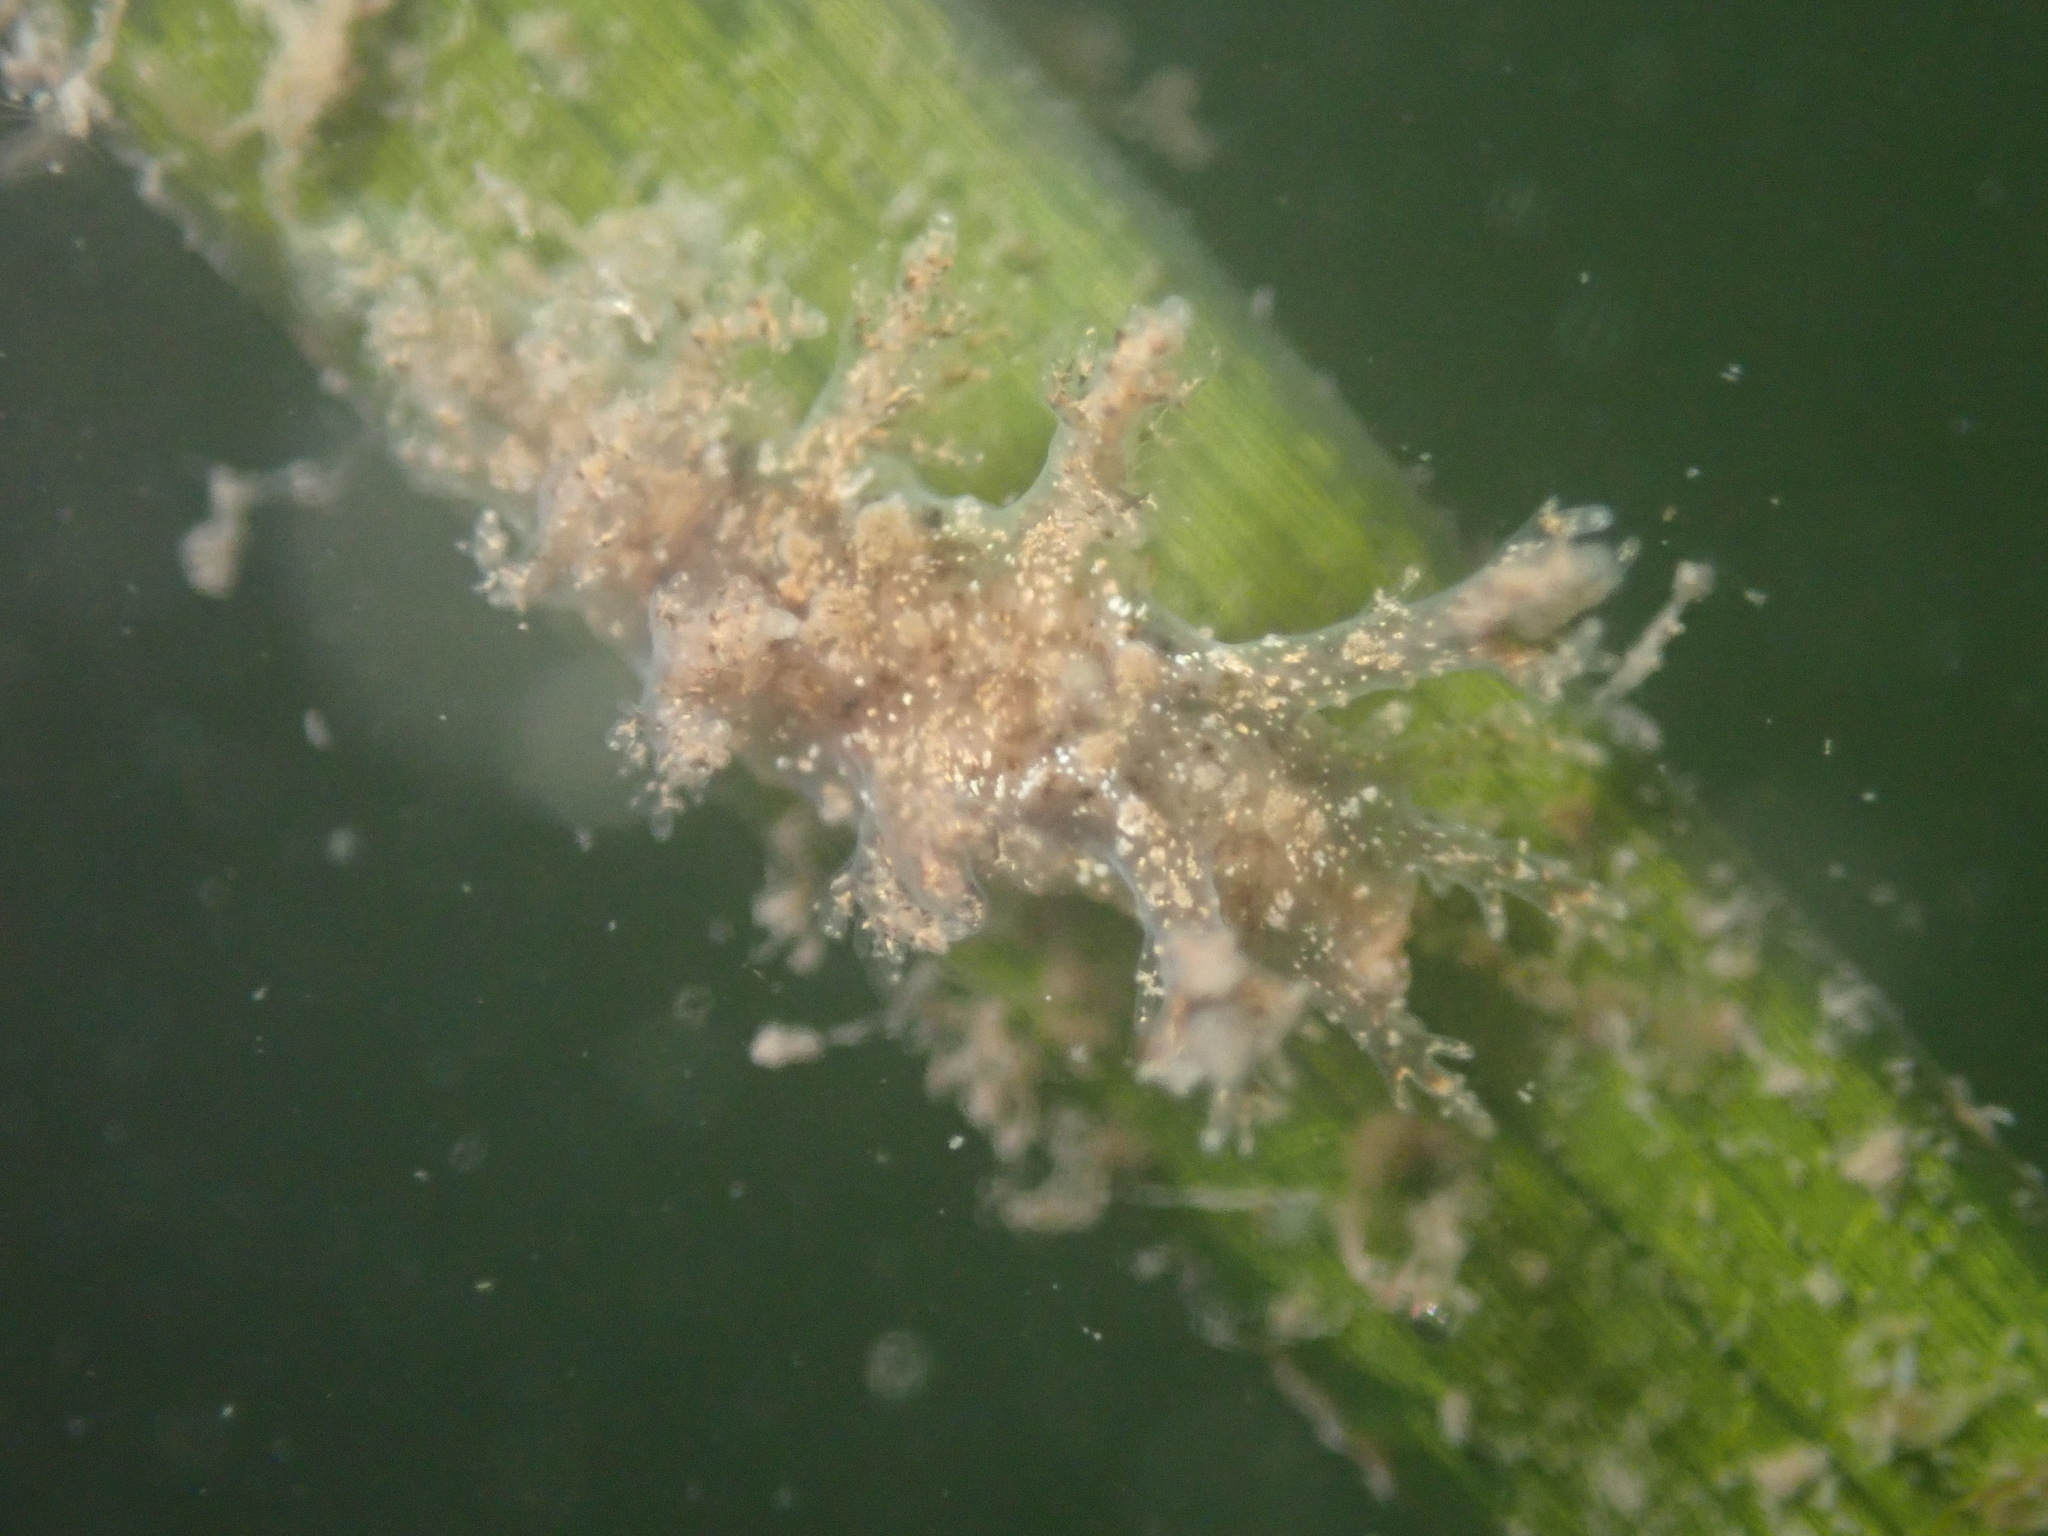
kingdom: Animalia
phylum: Mollusca
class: Gastropoda
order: Nudibranchia
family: Dendronotidae
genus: Dendronotus
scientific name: Dendronotus venustus
